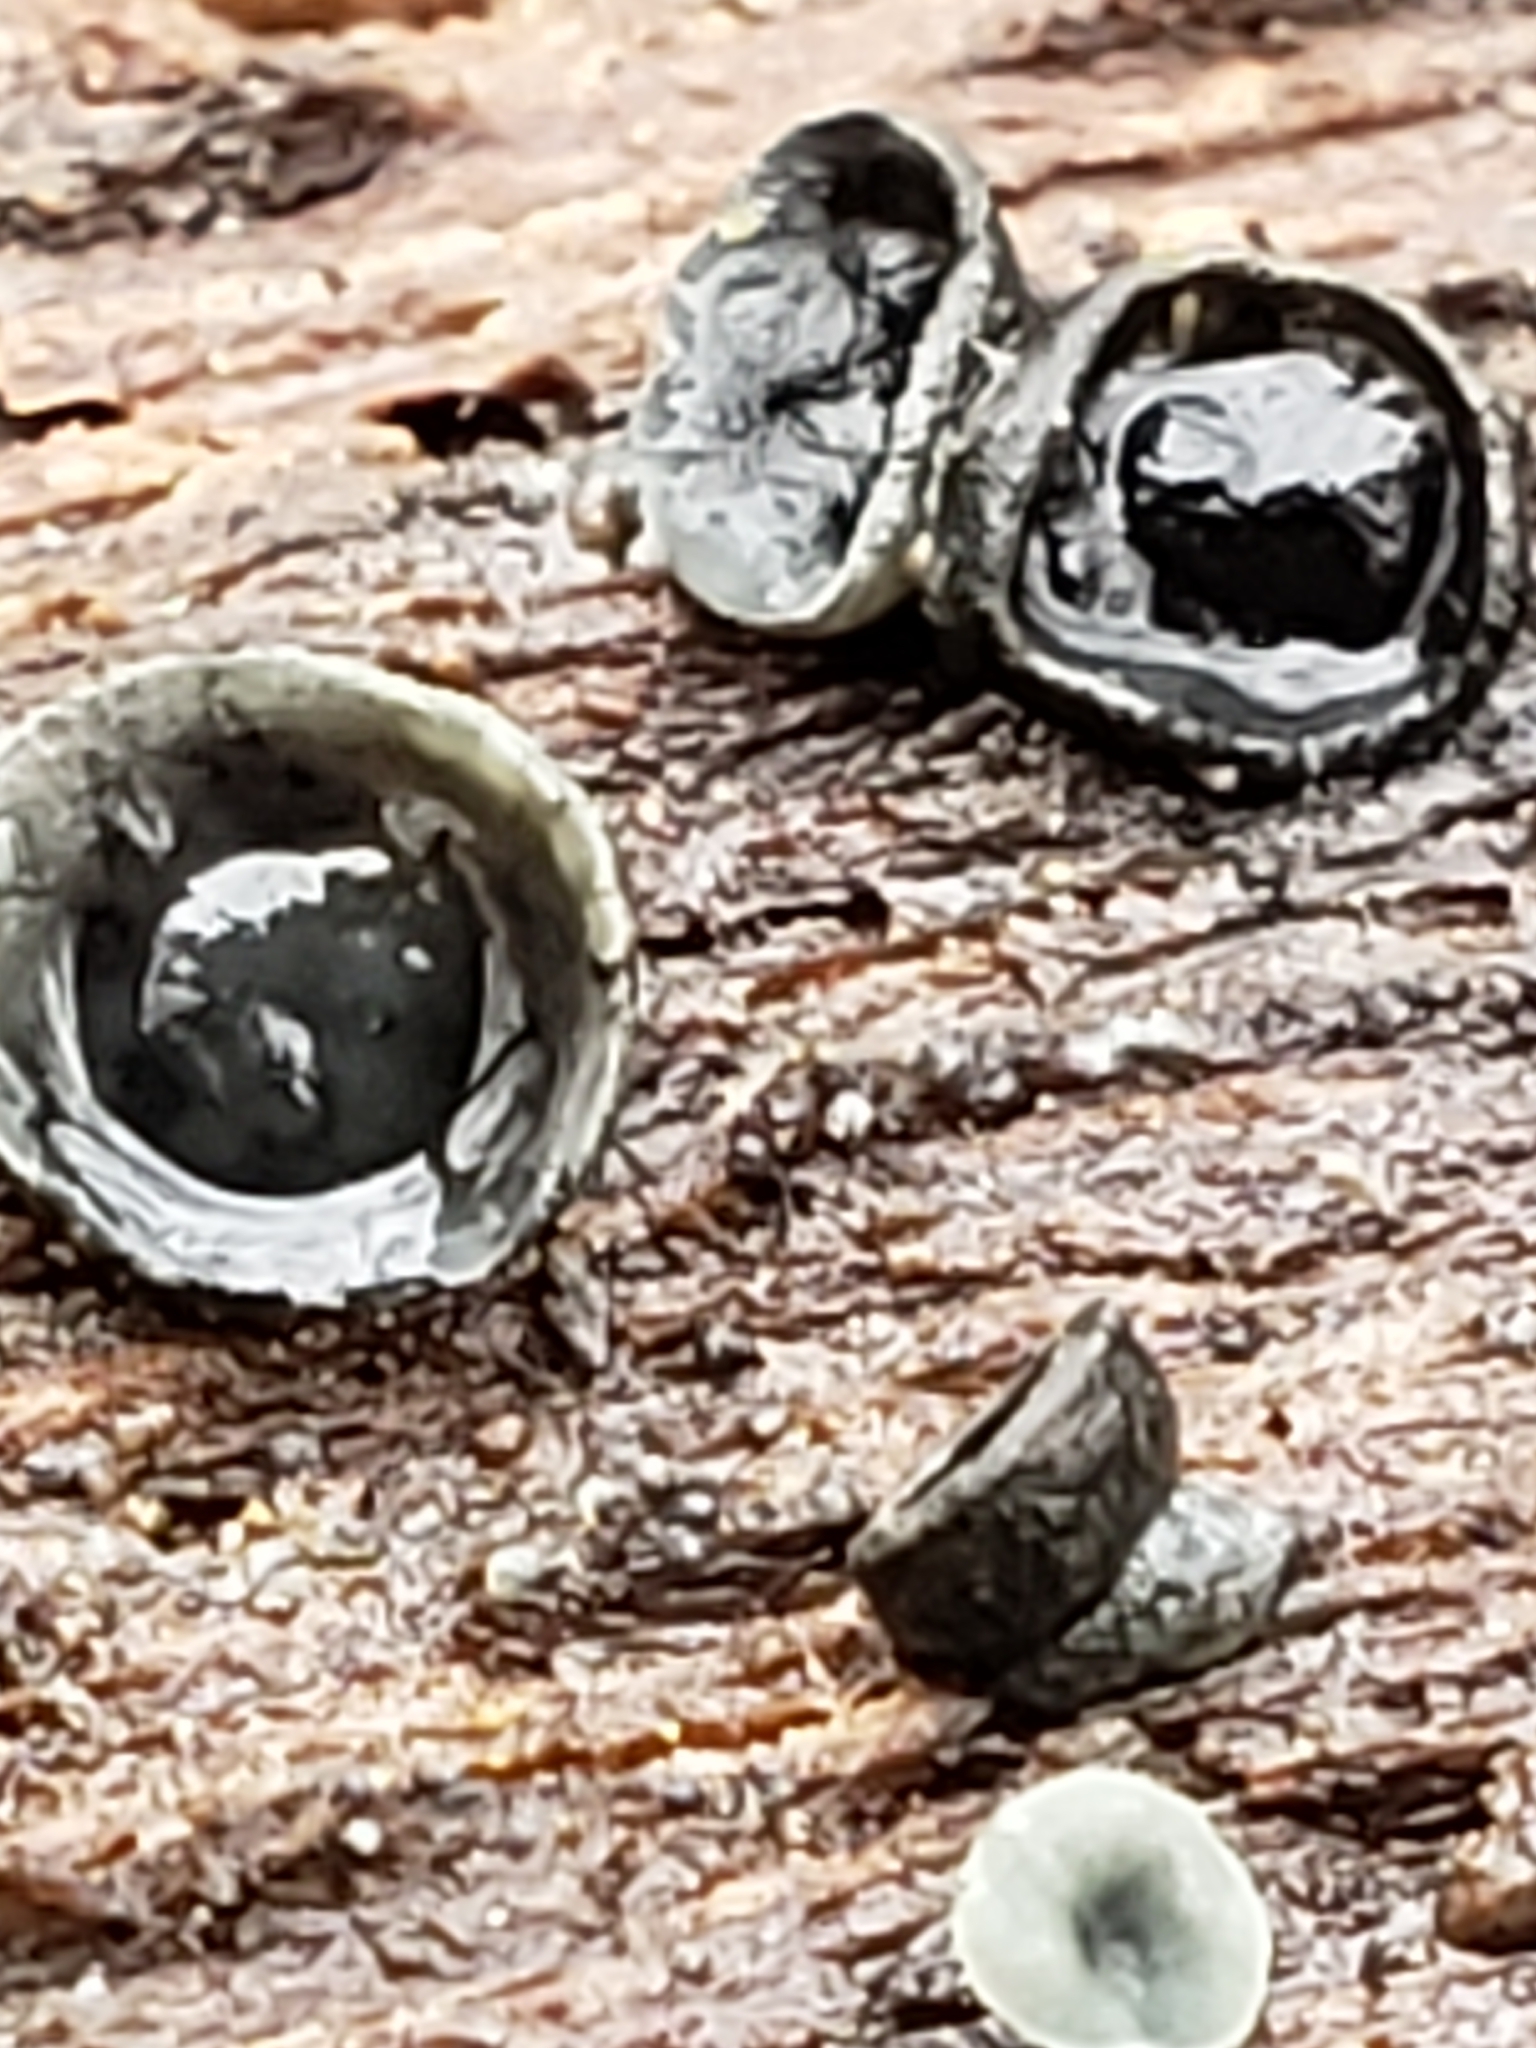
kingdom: Fungi
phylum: Ascomycota
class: Leotiomycetes
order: Helotiales
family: Chlorospleniaceae
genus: Chlorosplenium
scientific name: Chlorosplenium chlora
